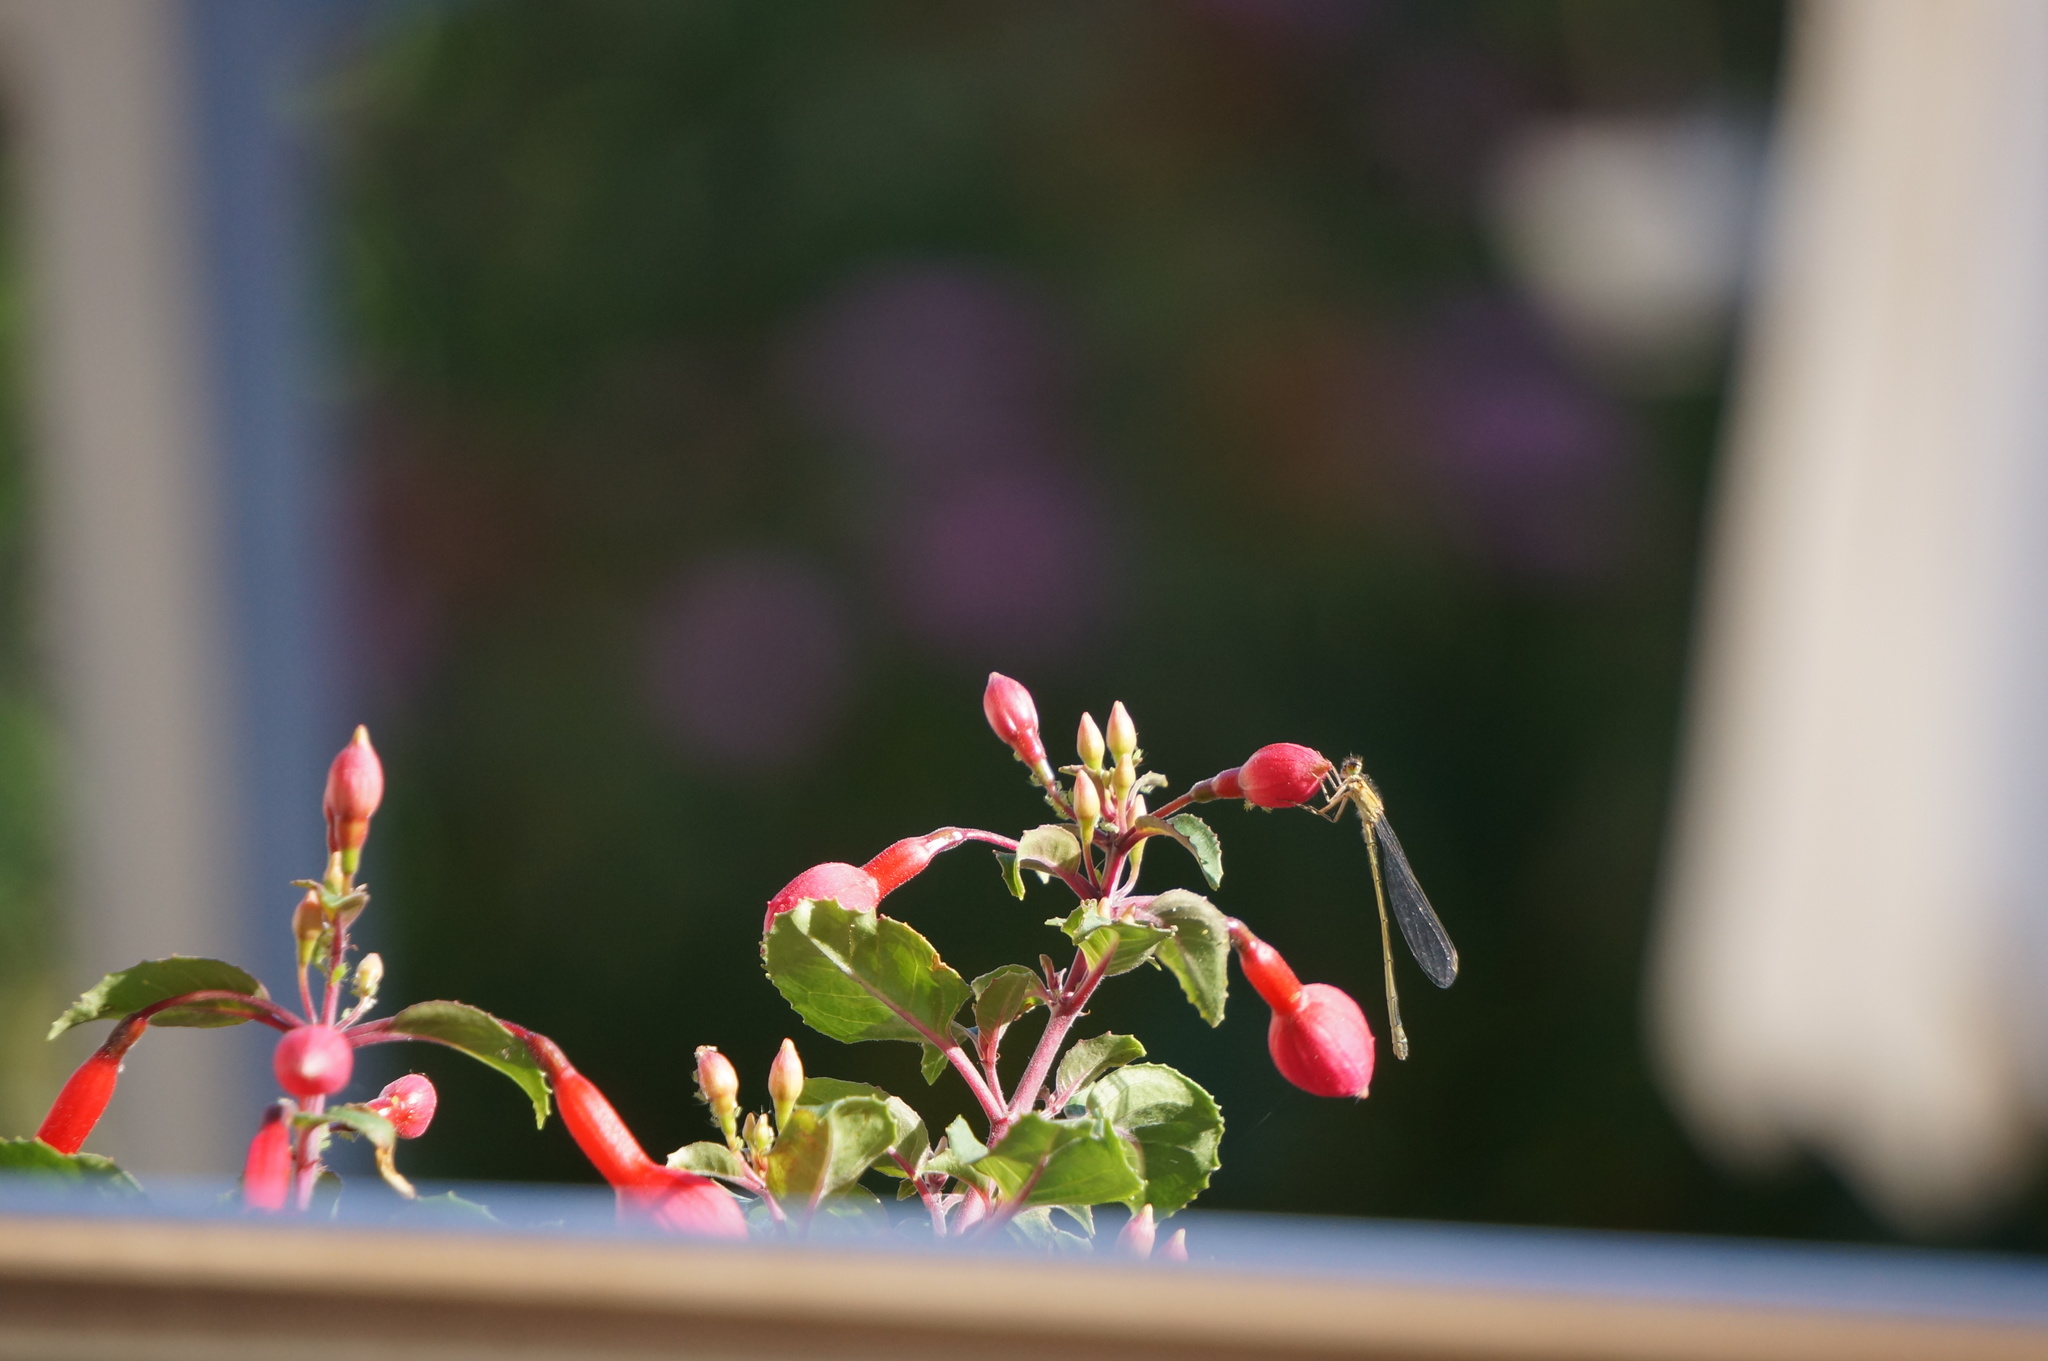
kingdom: Animalia
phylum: Arthropoda
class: Insecta
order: Odonata
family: Coenagrionidae
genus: Ischnura
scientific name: Ischnura elegans
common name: Blue-tailed damselfly
